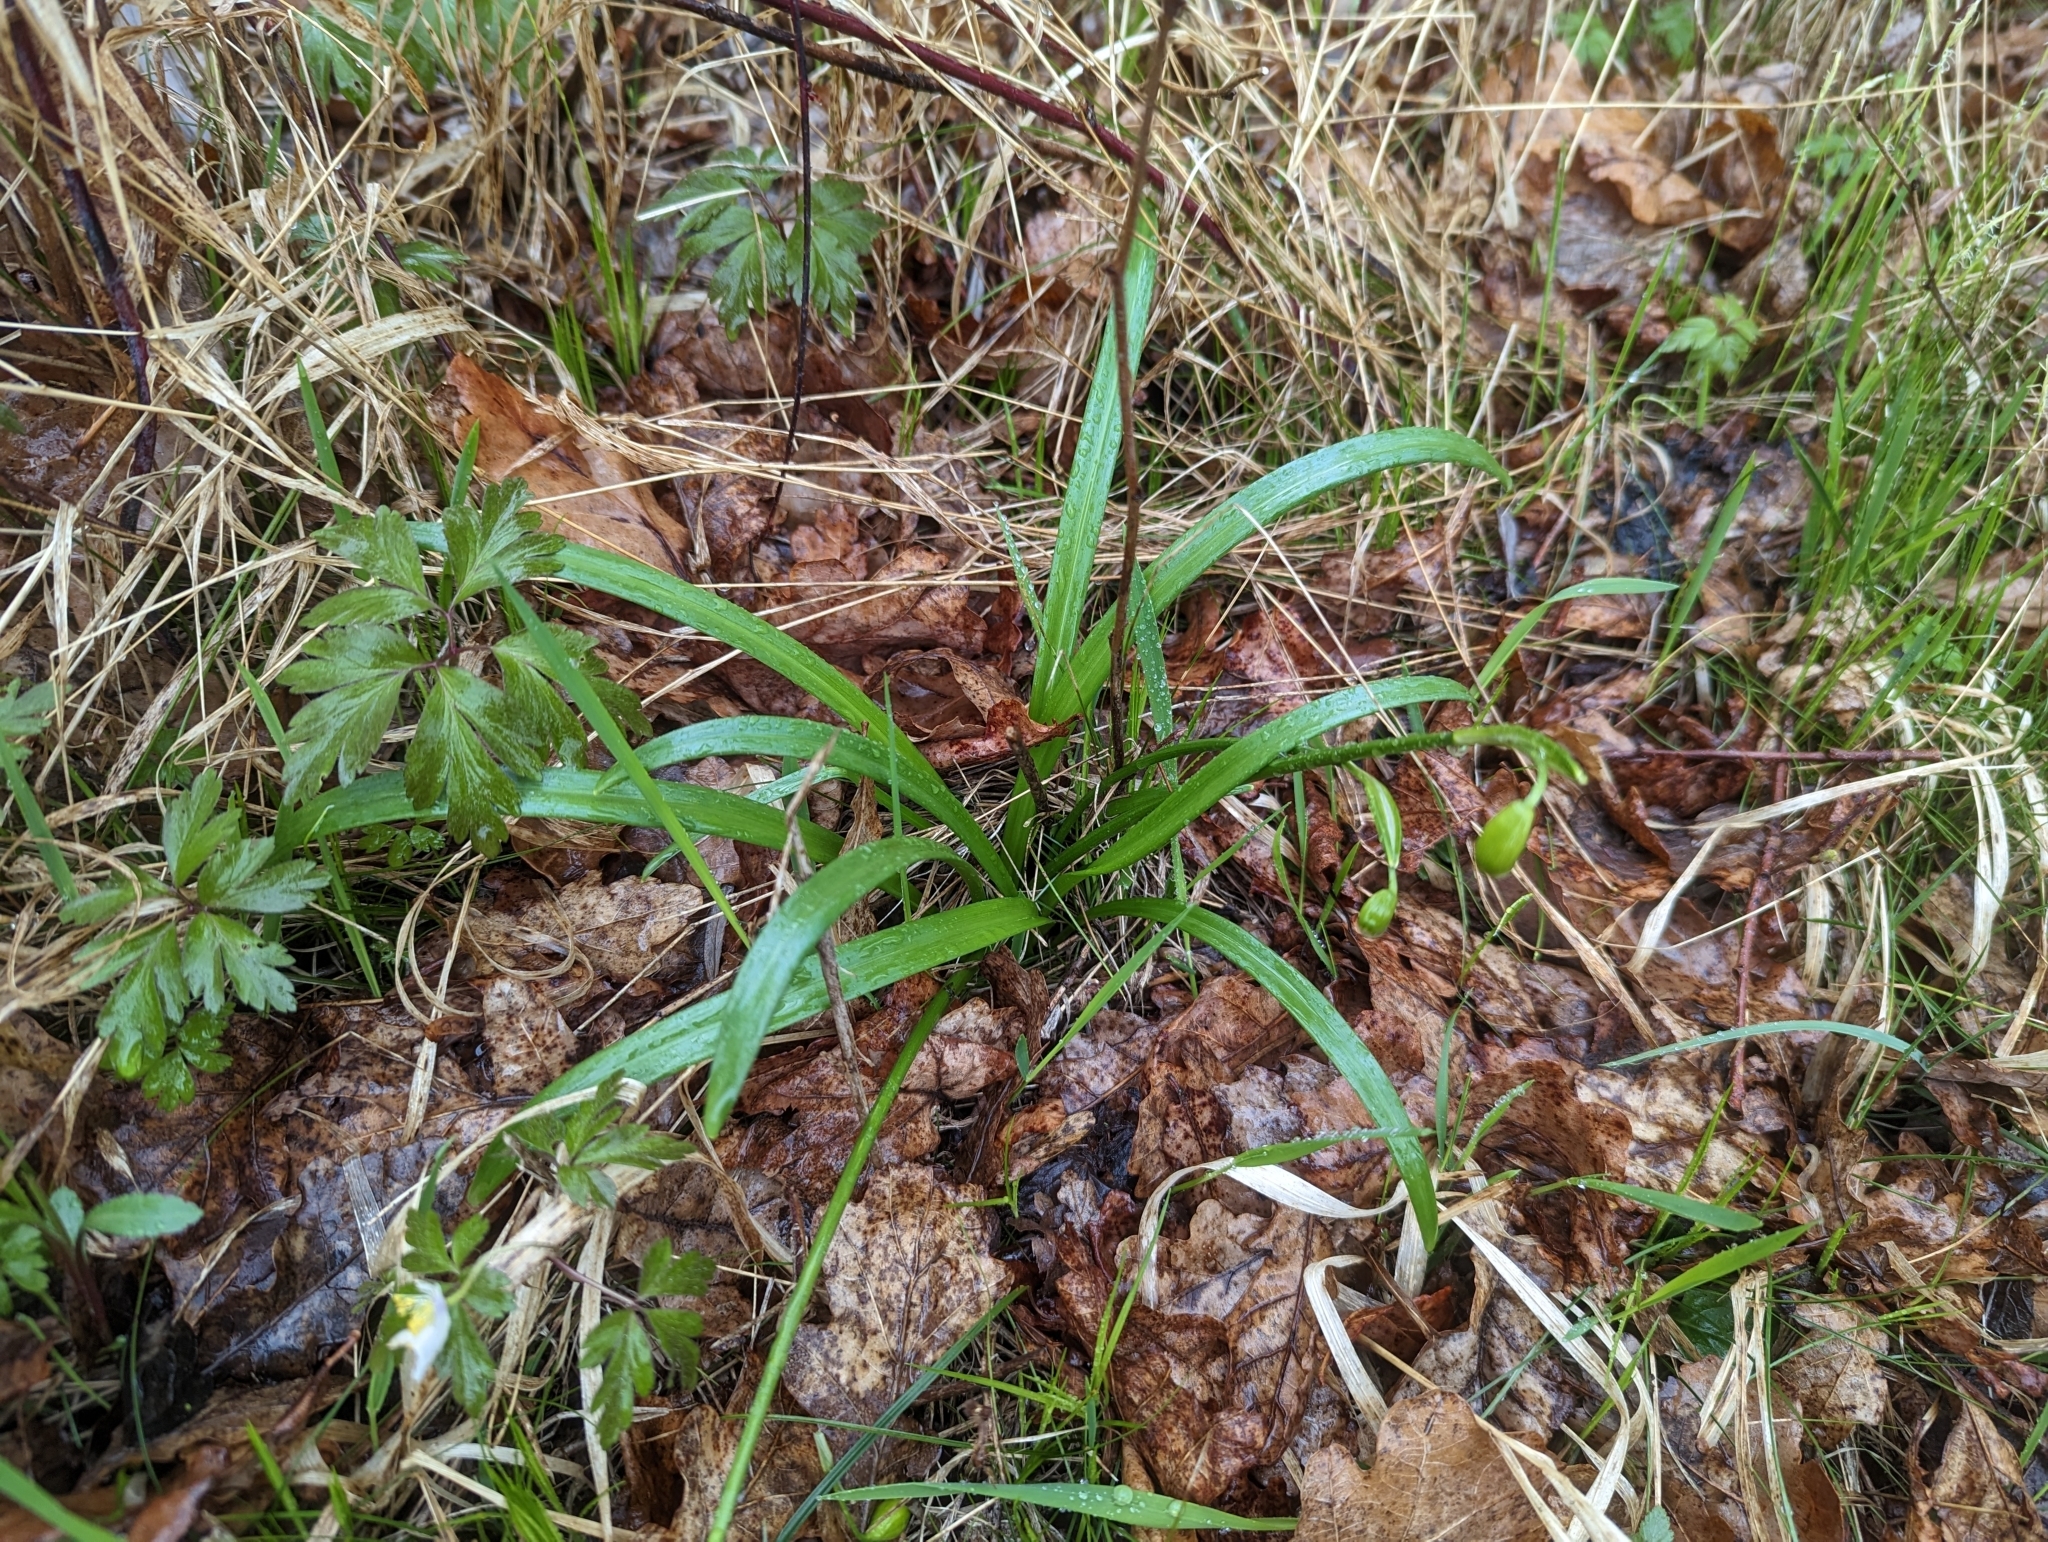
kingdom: Plantae
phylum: Tracheophyta
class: Liliopsida
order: Asparagales
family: Amaryllidaceae
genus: Leucojum
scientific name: Leucojum vernum
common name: Spring snowflake
